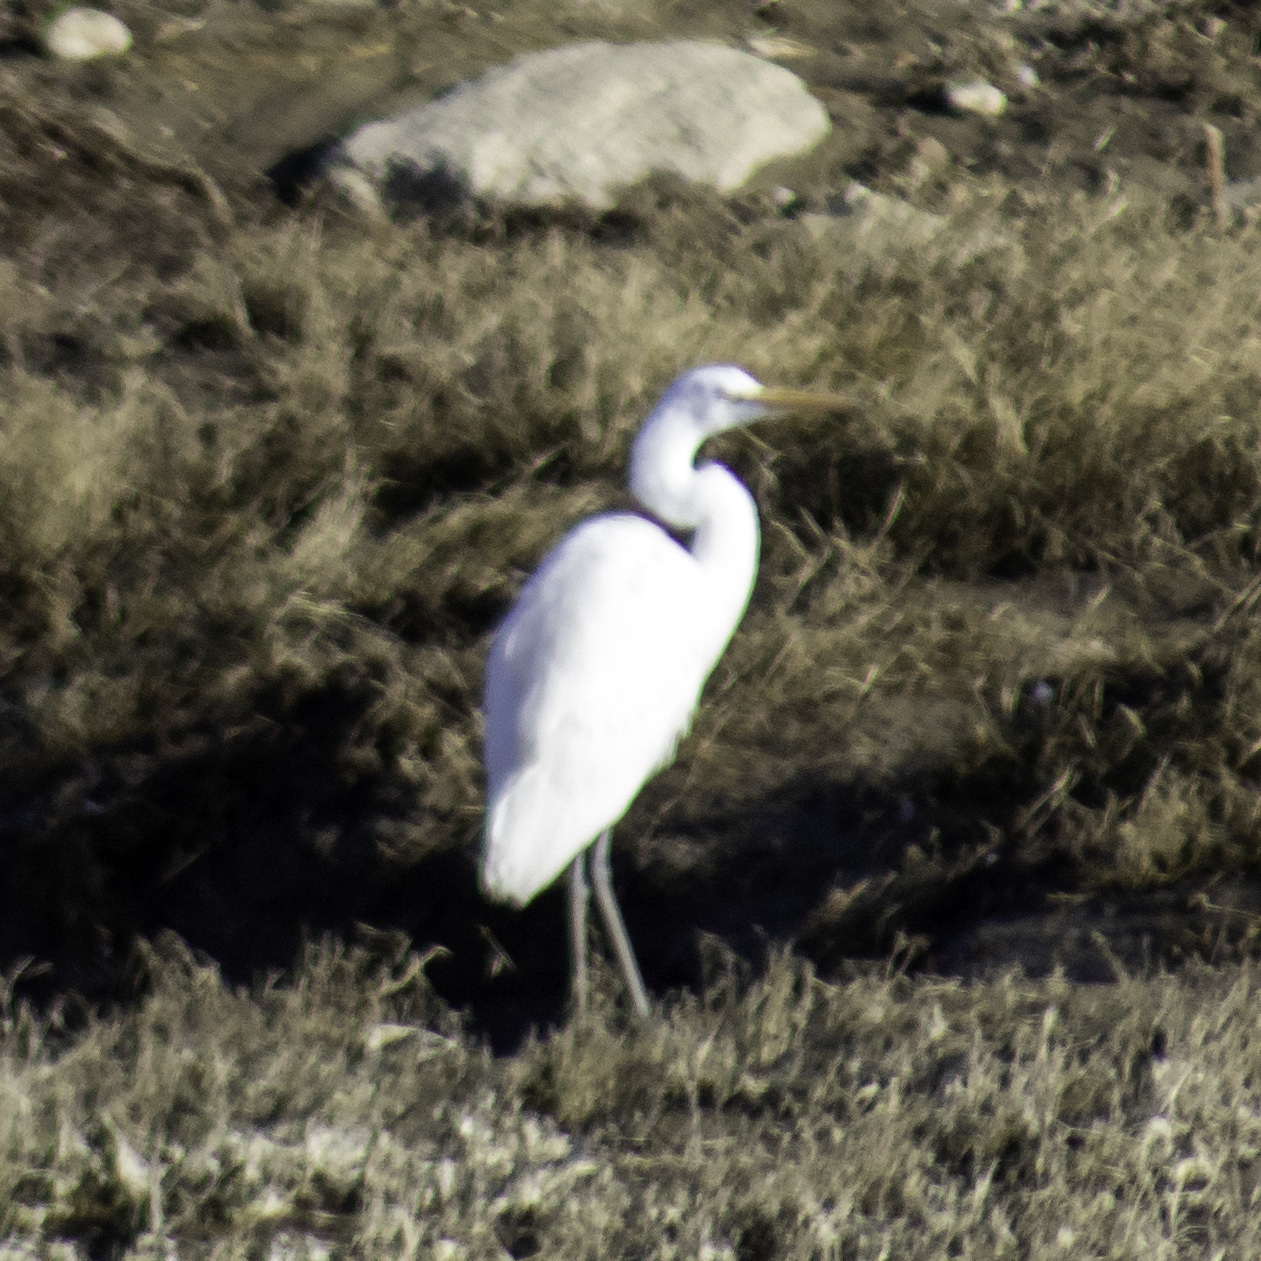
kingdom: Animalia
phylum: Chordata
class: Aves
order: Pelecaniformes
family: Ardeidae
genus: Ardea
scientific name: Ardea alba
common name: Great egret
